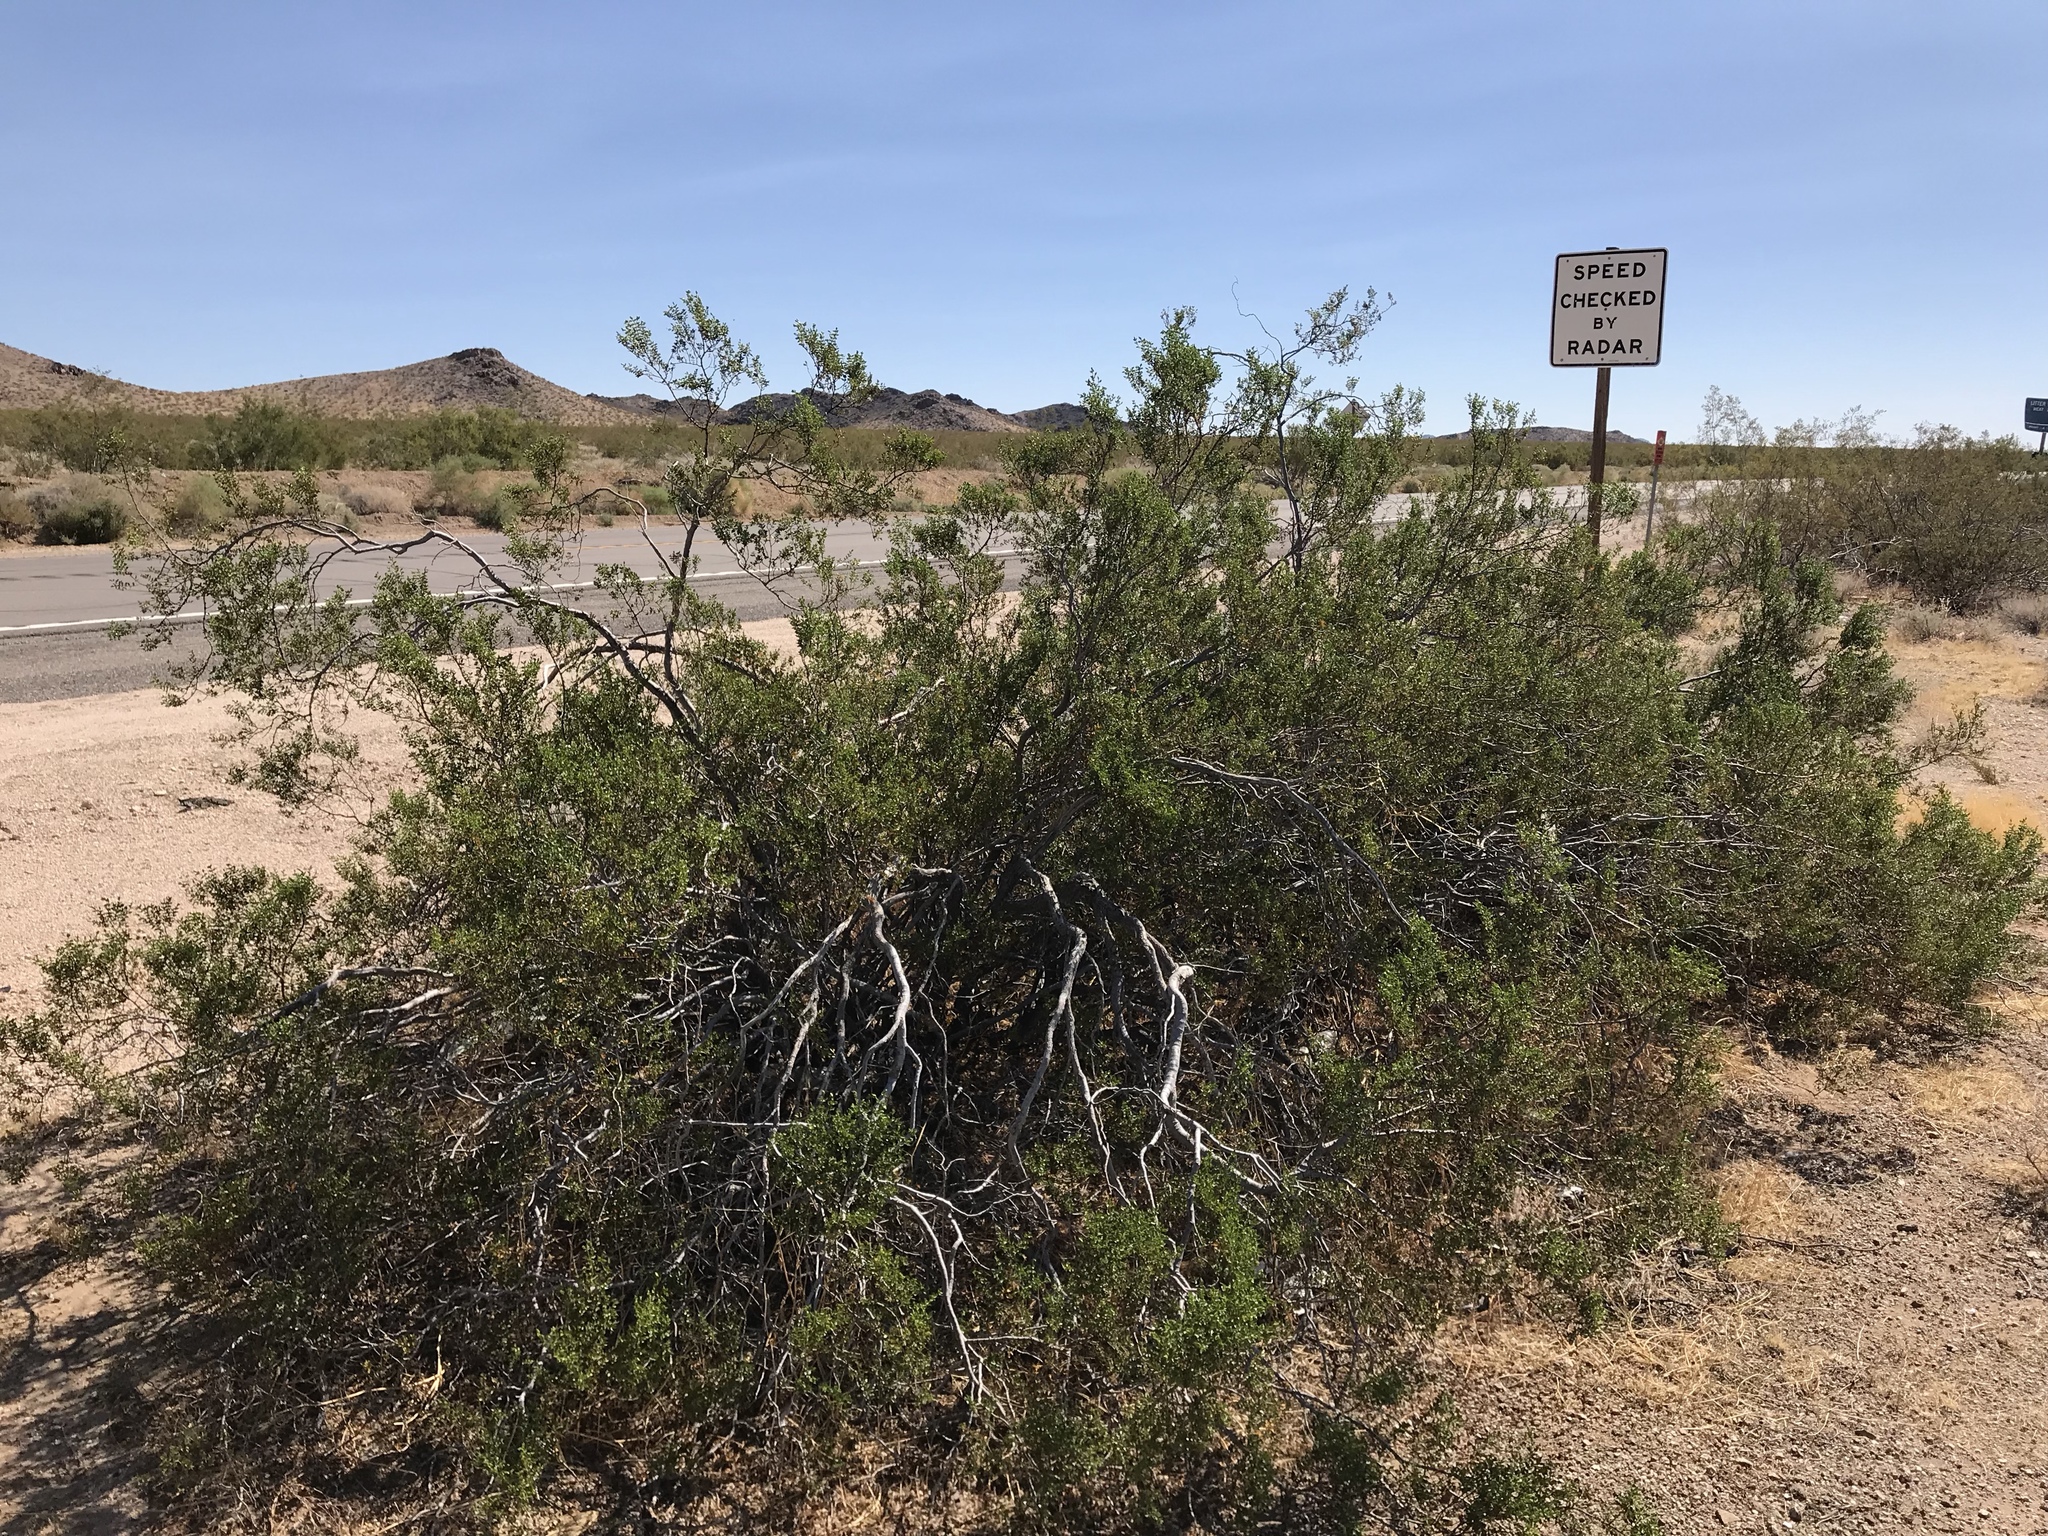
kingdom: Plantae
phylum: Tracheophyta
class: Magnoliopsida
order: Zygophyllales
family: Zygophyllaceae
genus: Larrea
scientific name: Larrea tridentata
